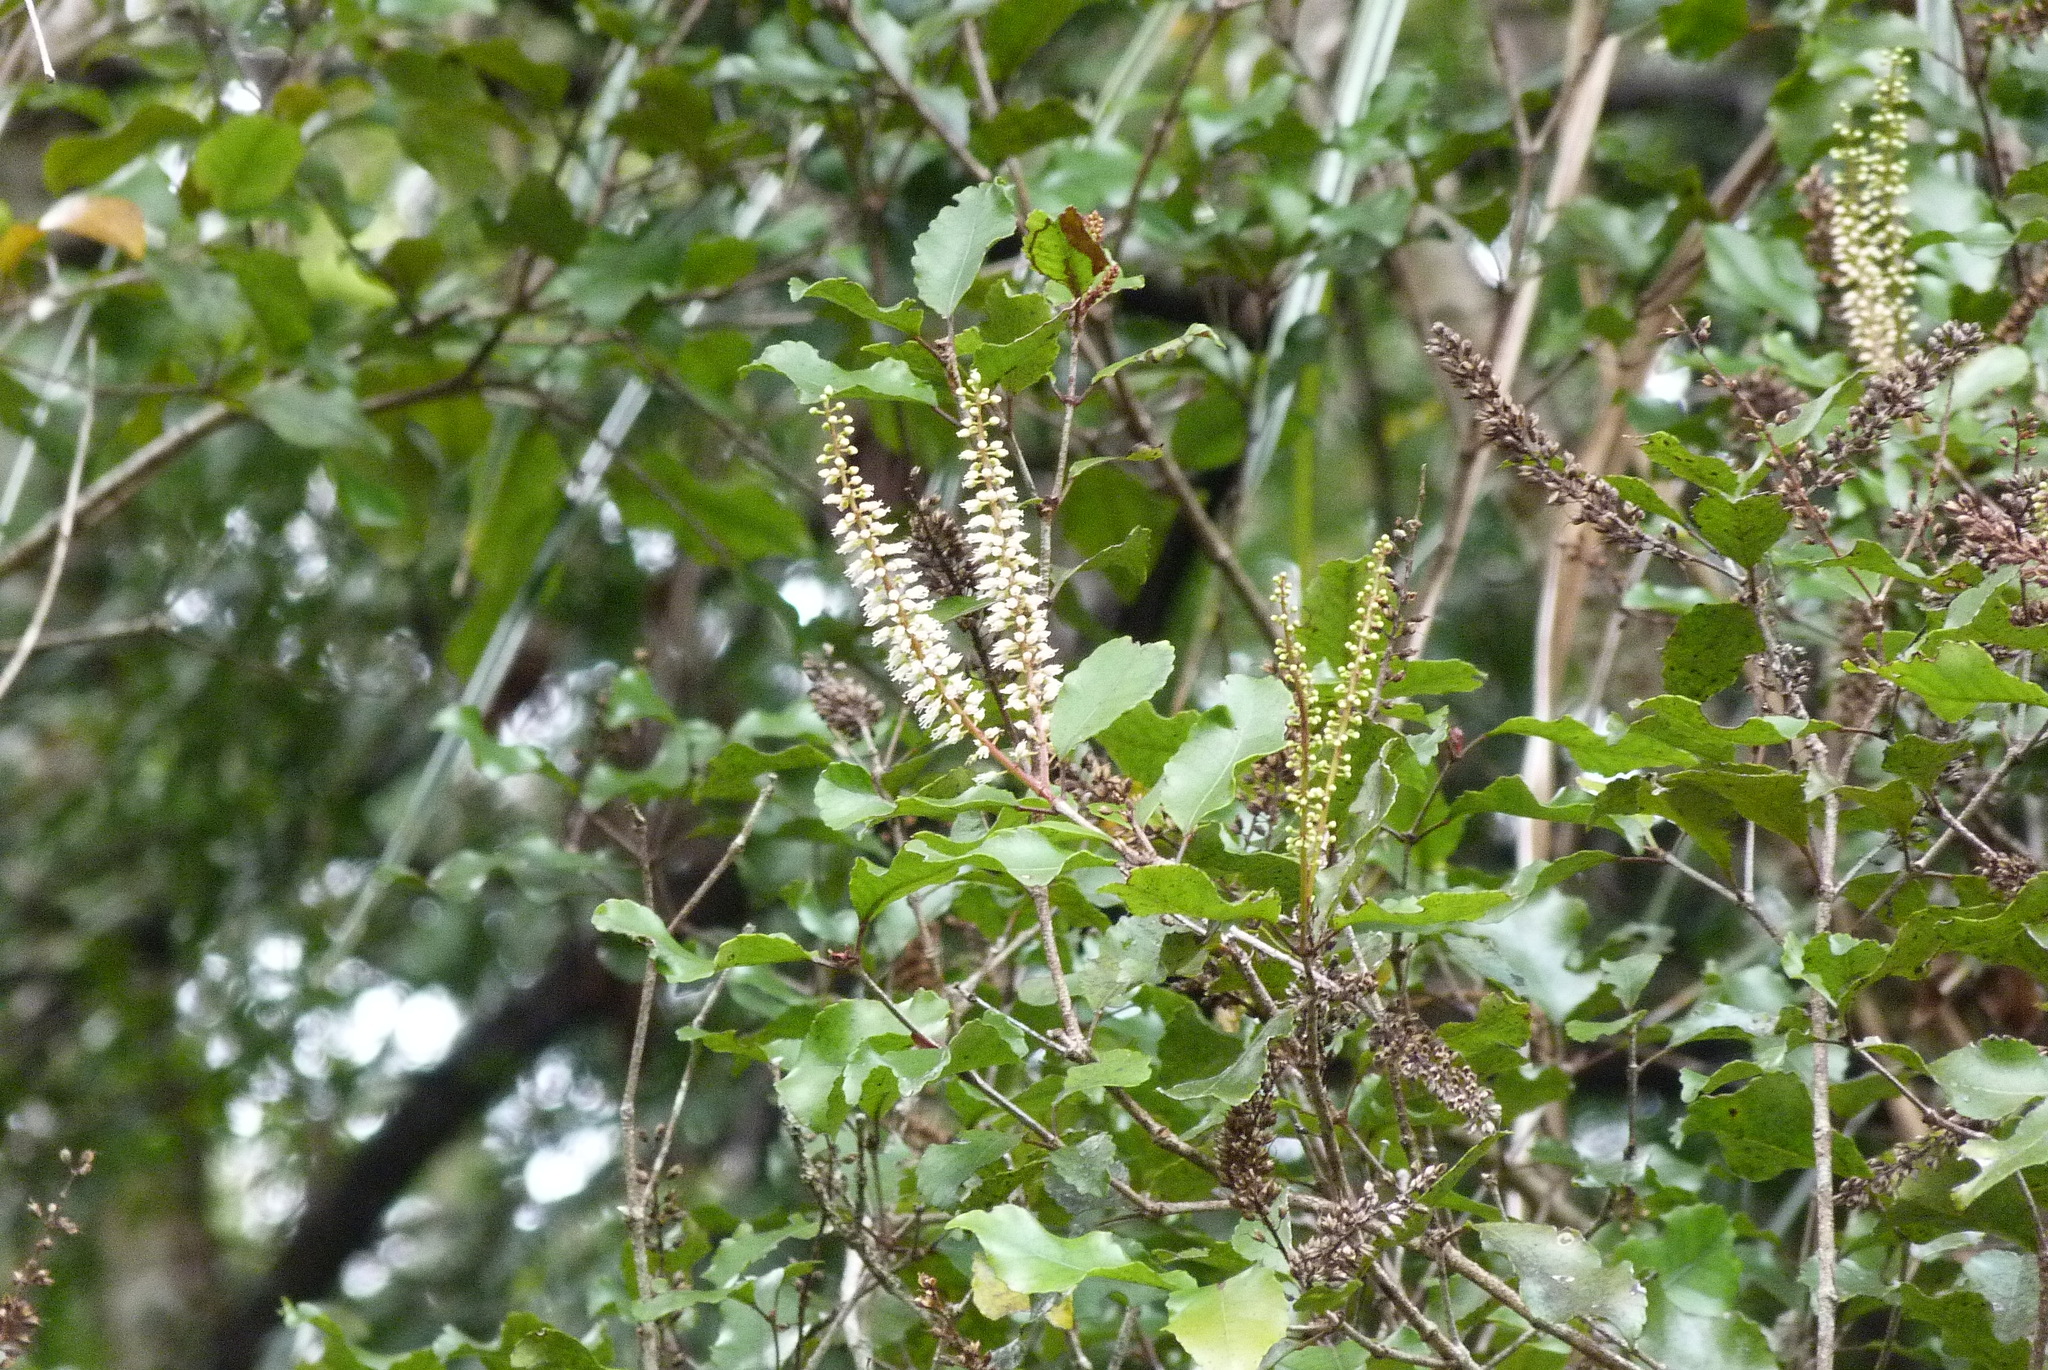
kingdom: Plantae
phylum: Tracheophyta
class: Magnoliopsida
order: Oxalidales
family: Cunoniaceae
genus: Pterophylla
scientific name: Pterophylla racemosa
